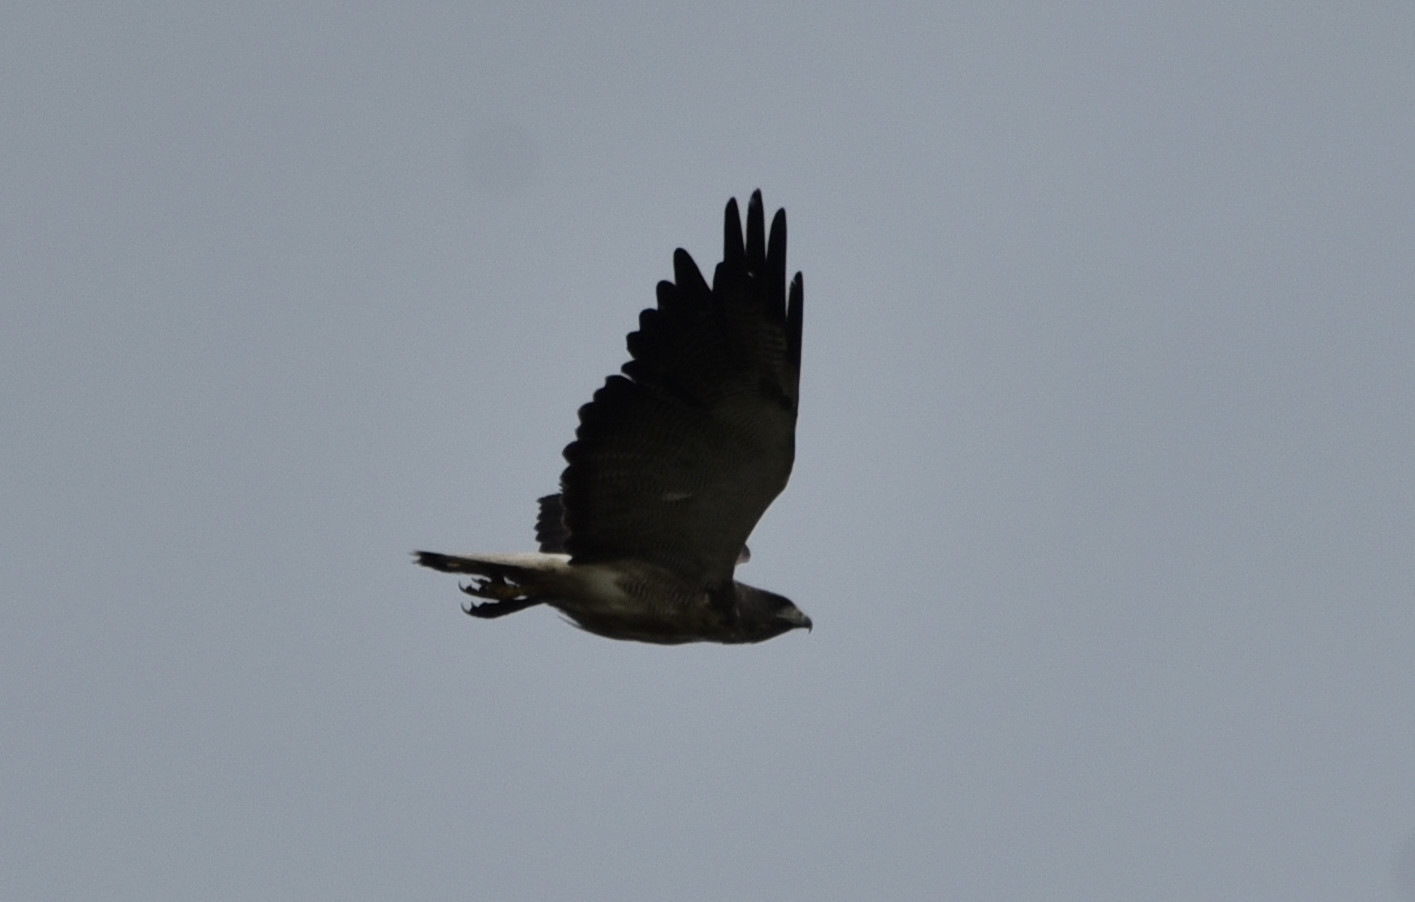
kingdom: Animalia
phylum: Chordata
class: Aves
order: Accipitriformes
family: Accipitridae
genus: Buteo
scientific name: Buteo albicaudatus
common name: White-tailed hawk
